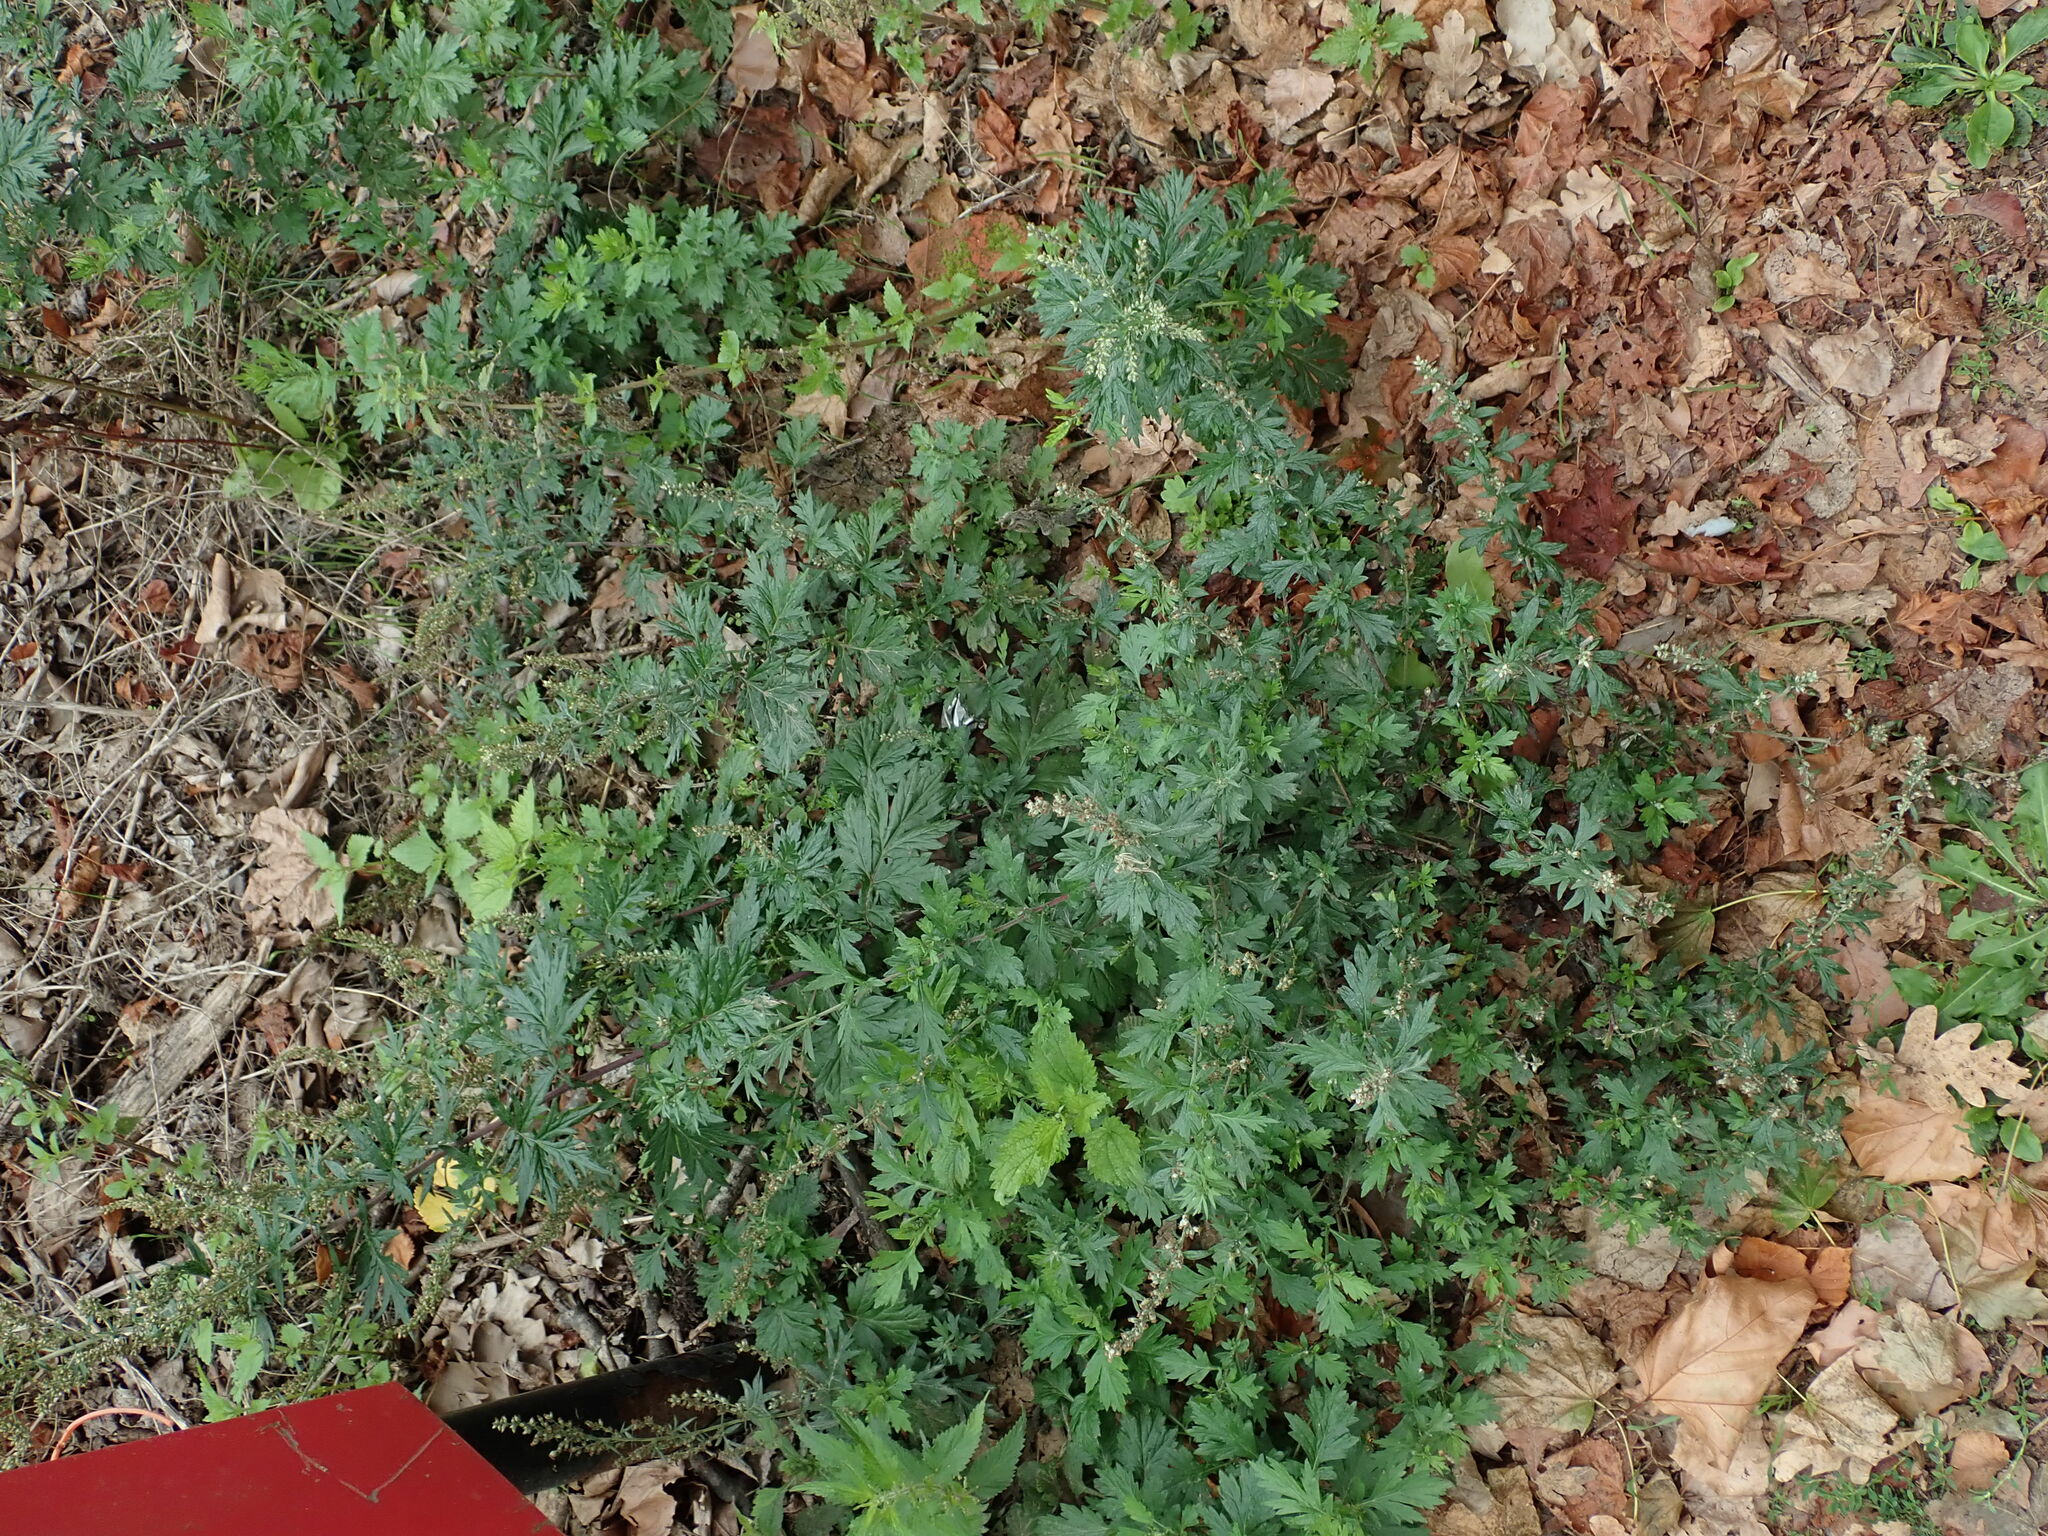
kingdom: Plantae
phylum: Tracheophyta
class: Magnoliopsida
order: Asterales
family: Asteraceae
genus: Artemisia
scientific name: Artemisia vulgaris
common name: Mugwort
